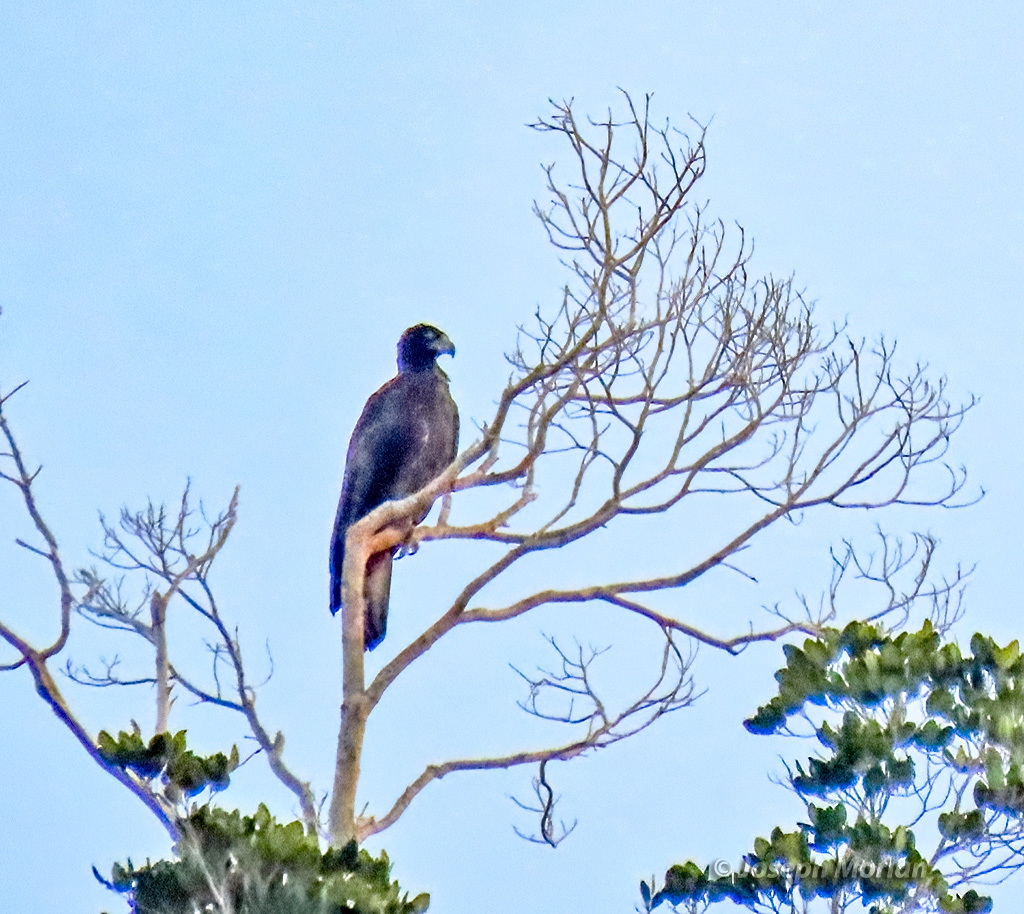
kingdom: Animalia
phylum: Chordata
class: Aves
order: Accipitriformes
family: Accipitridae
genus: Aquila
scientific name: Aquila gurneyi
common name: Gurney's eagle
